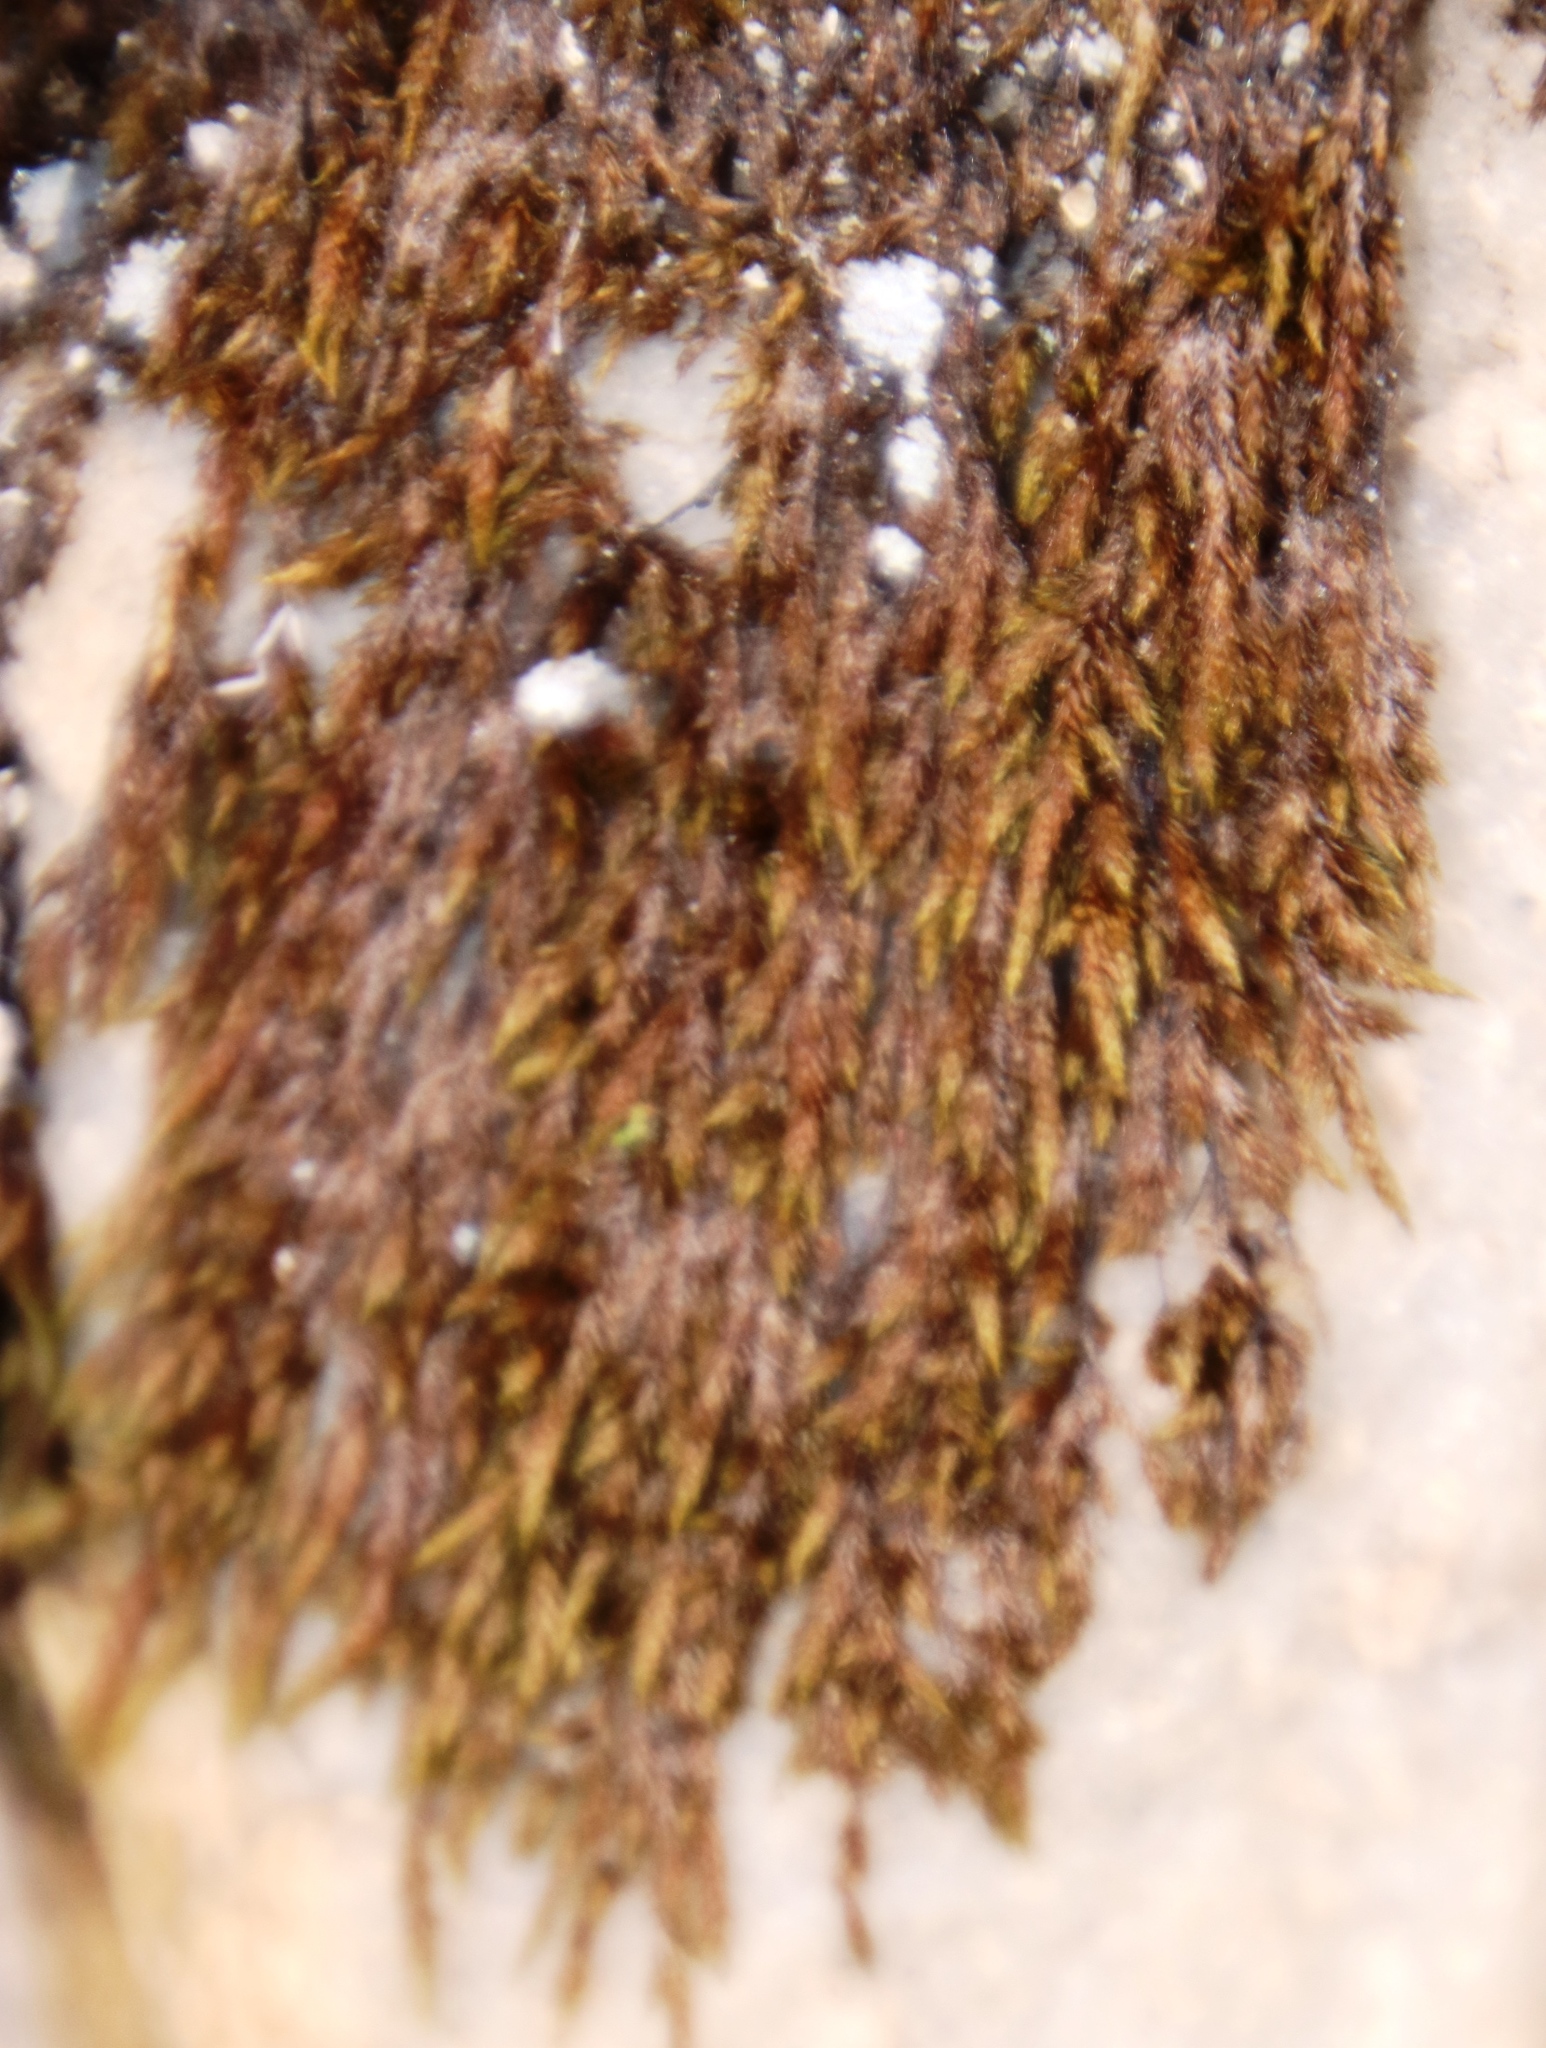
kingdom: Plantae
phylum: Bryophyta
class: Bryopsida
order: Hedwigiales
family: Hedwigiaceae
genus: Rhacocarpus
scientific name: Rhacocarpus purpurascens
